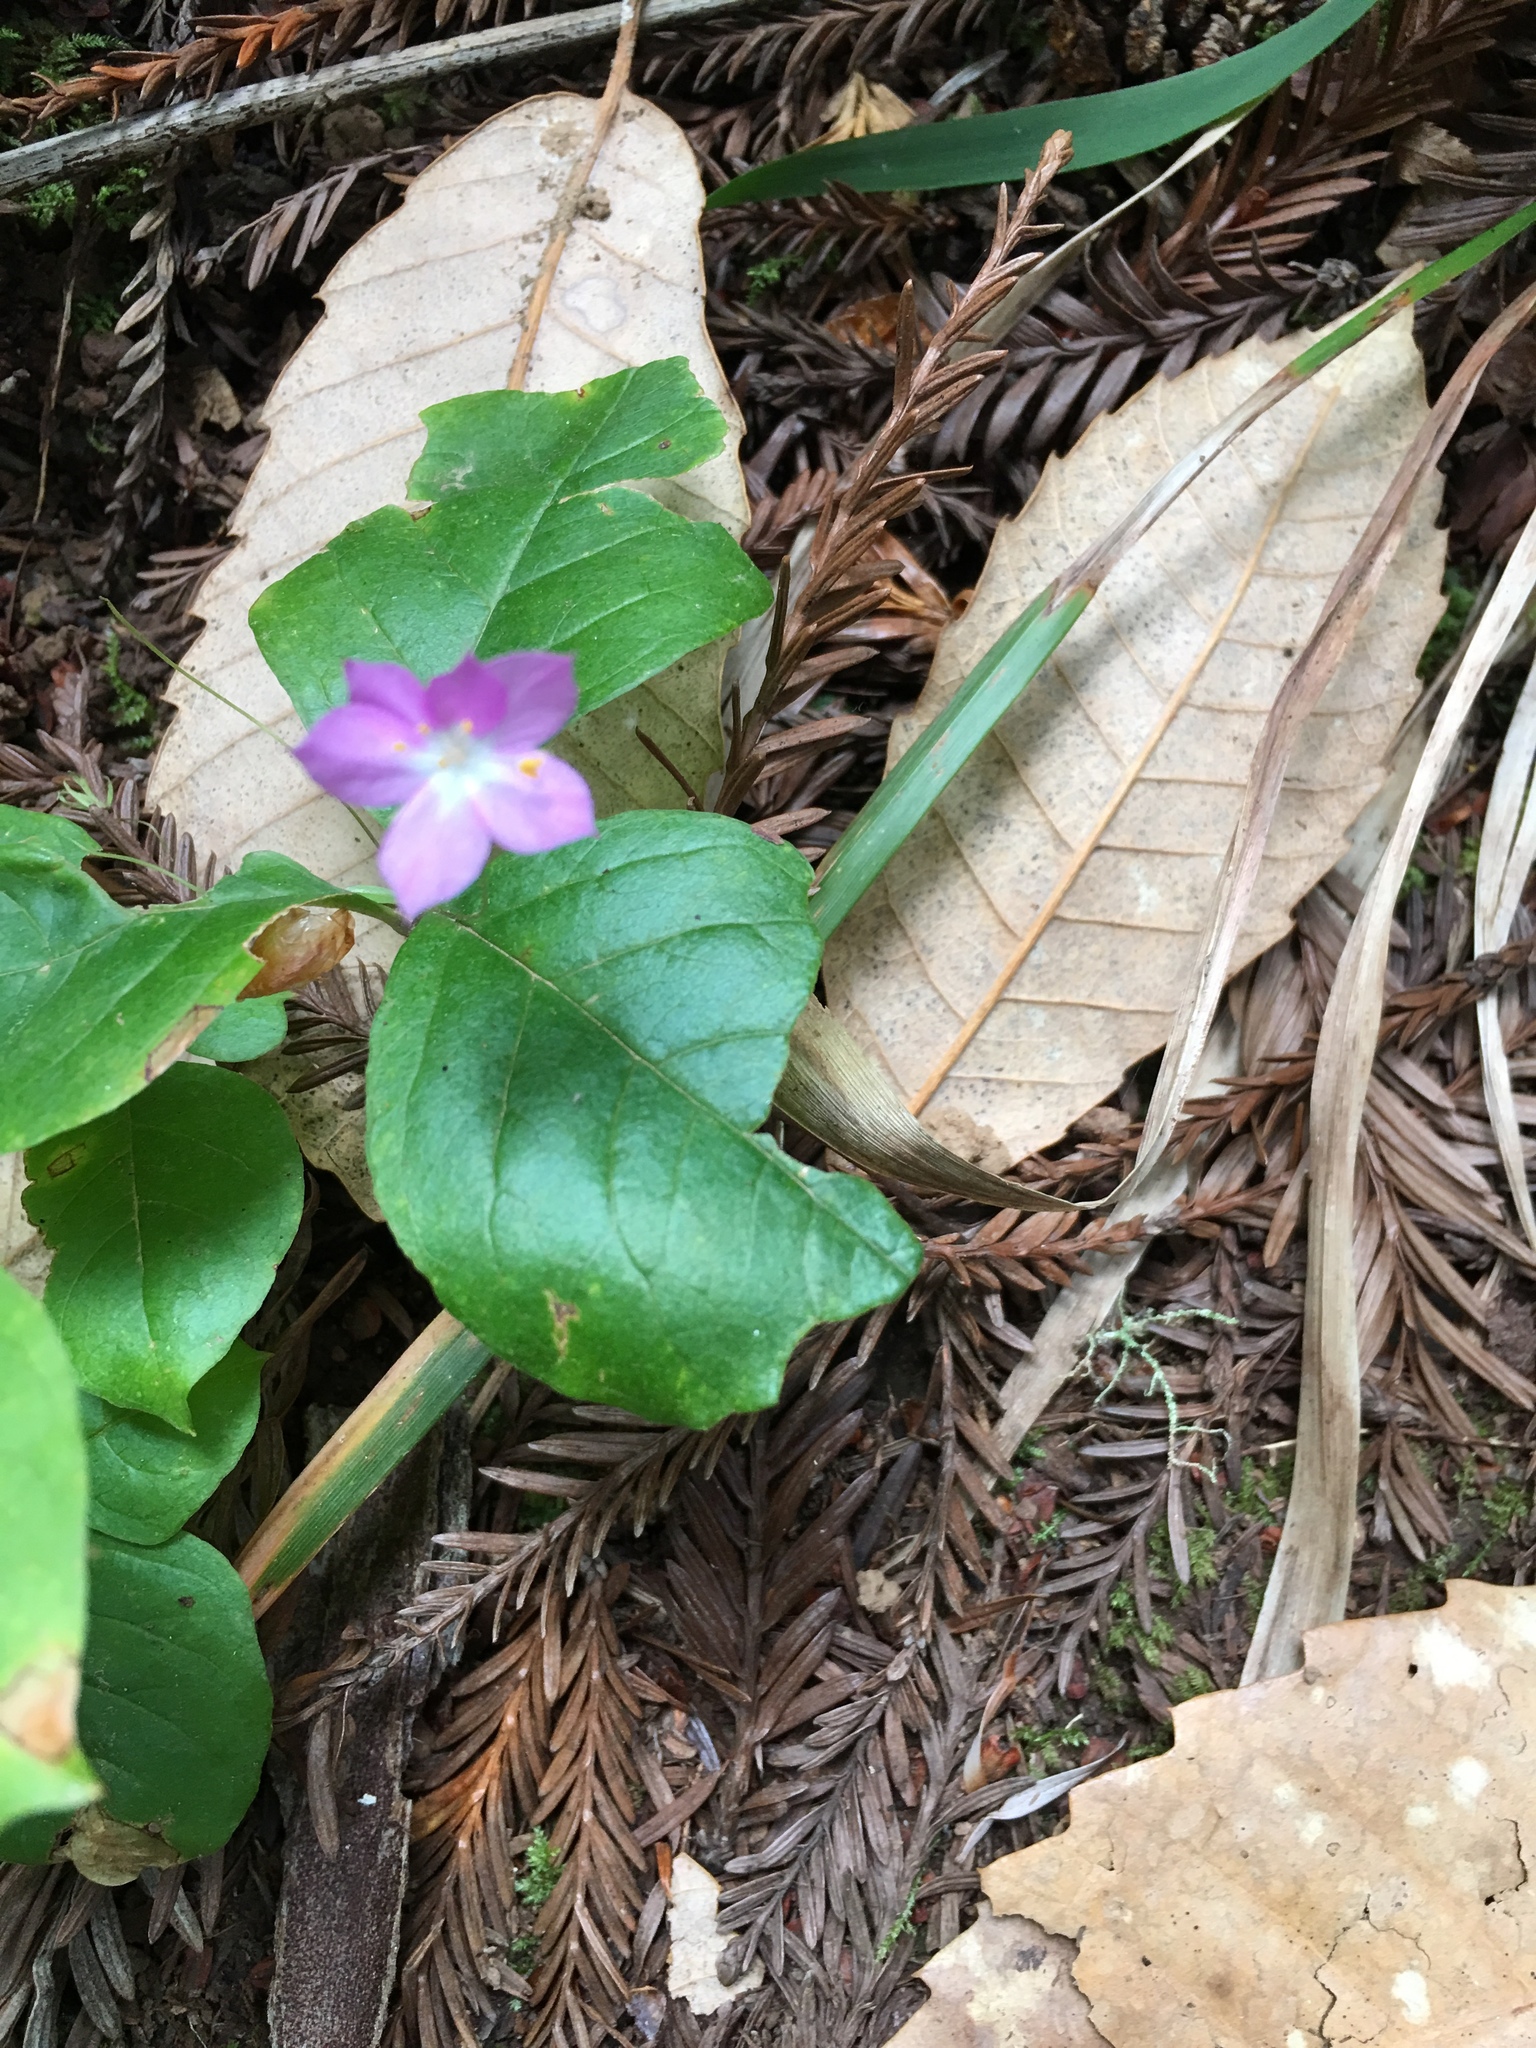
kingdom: Plantae
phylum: Tracheophyta
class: Magnoliopsida
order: Ericales
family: Primulaceae
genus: Lysimachia
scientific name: Lysimachia latifolia
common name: Pacific starflower
